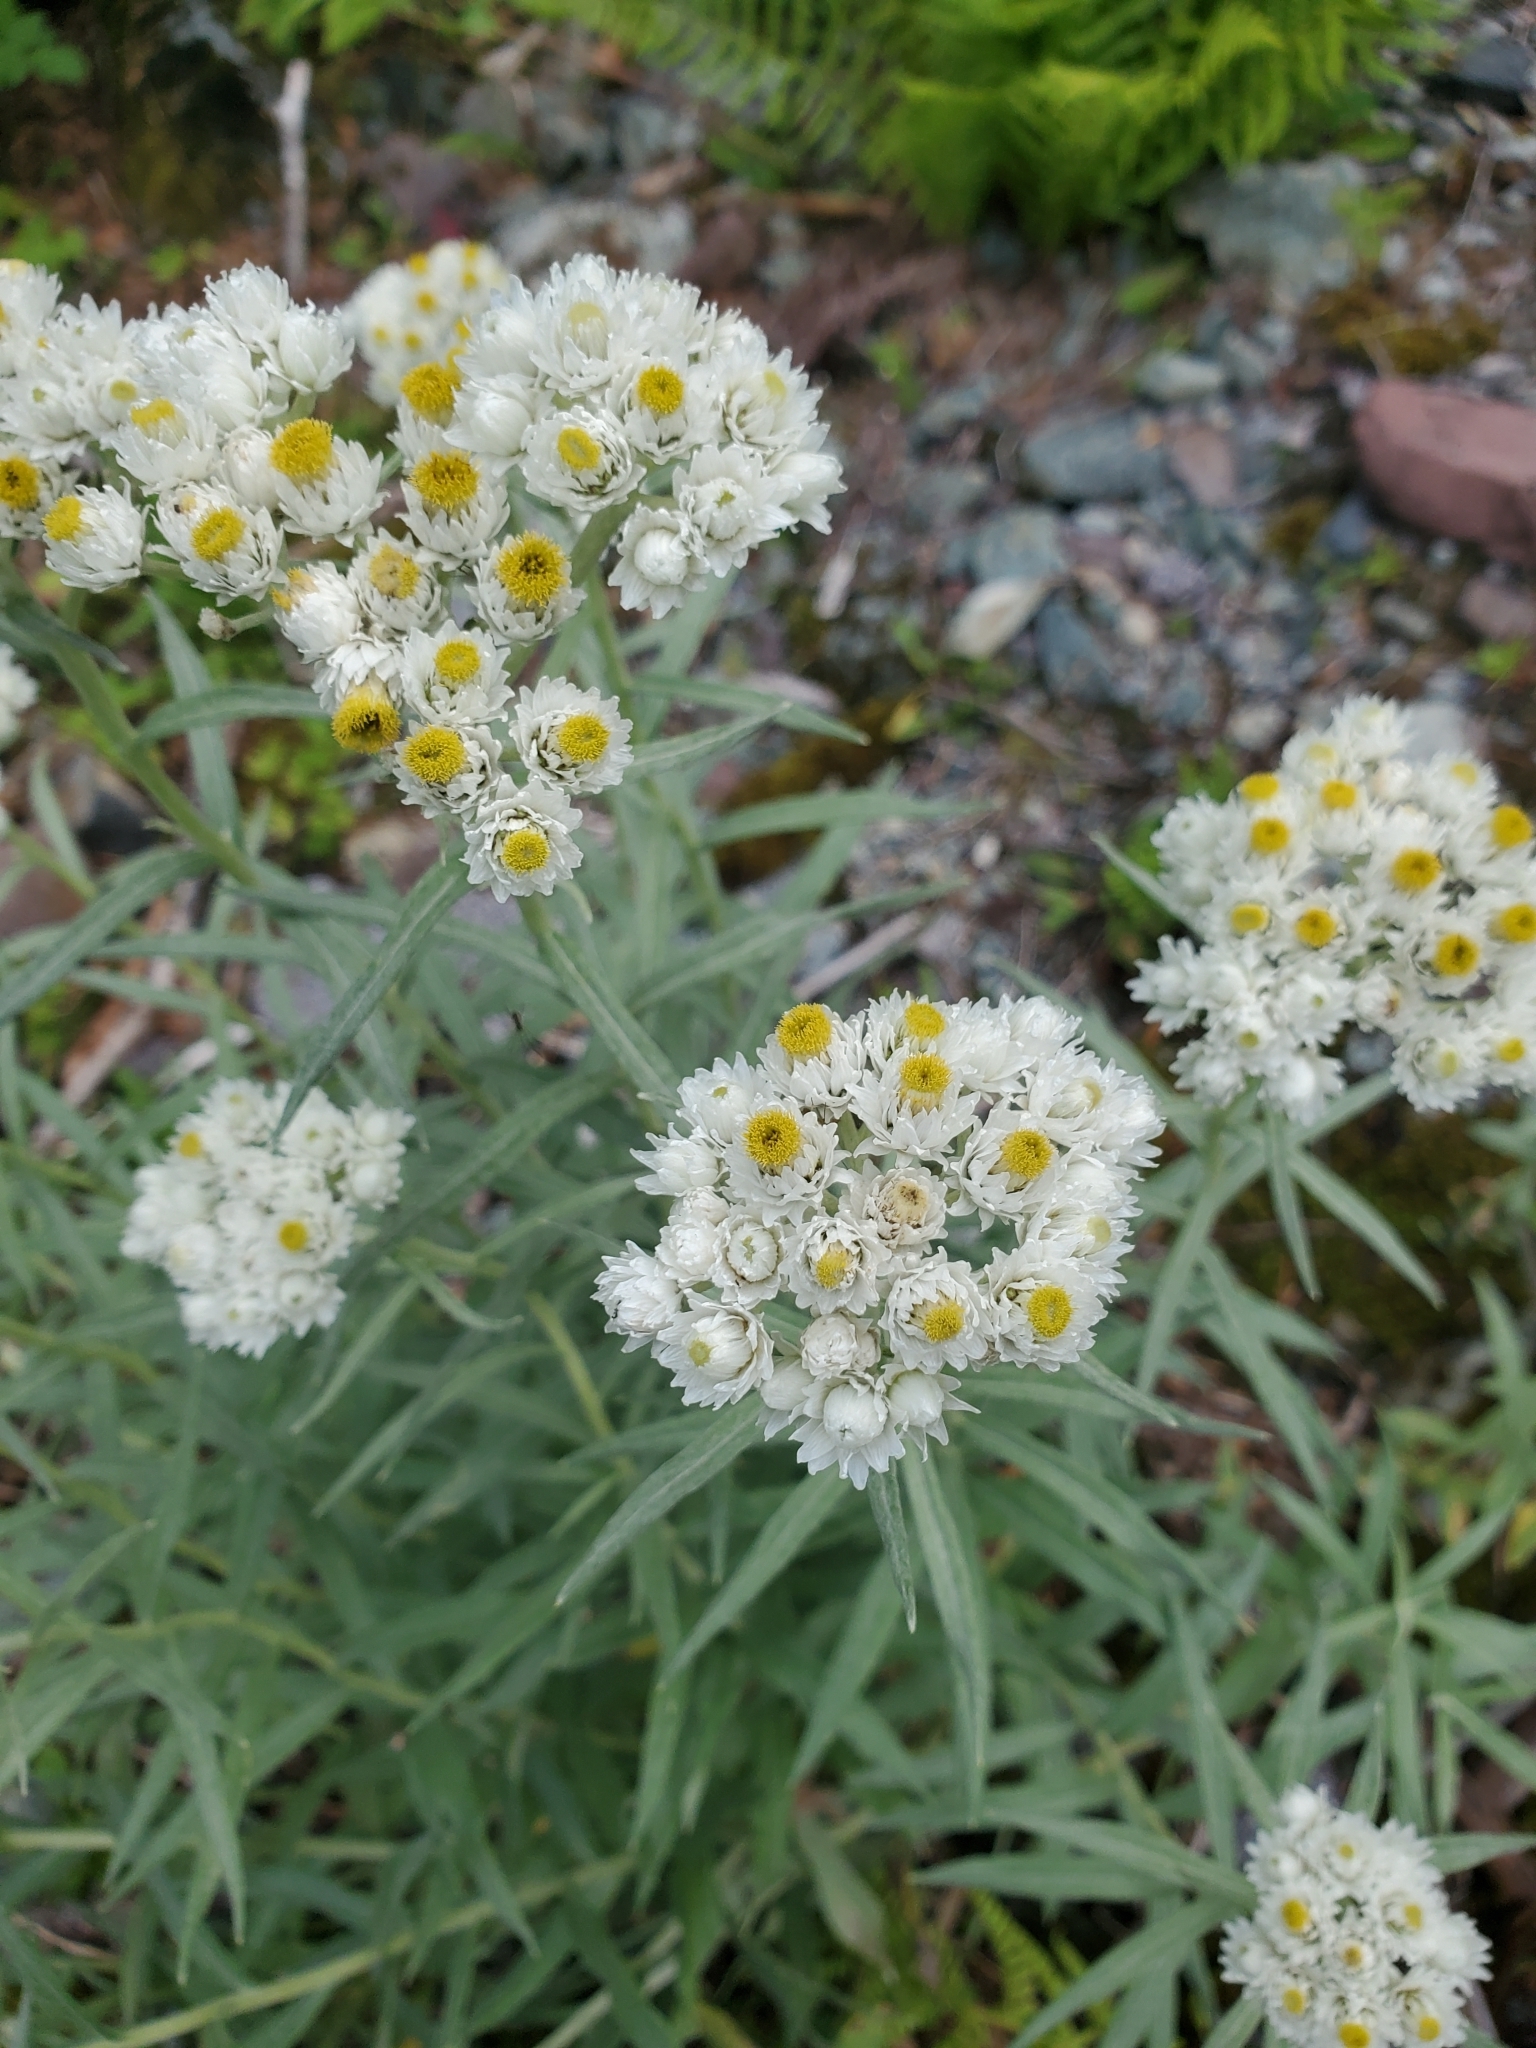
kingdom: Plantae
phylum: Tracheophyta
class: Magnoliopsida
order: Asterales
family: Asteraceae
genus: Anaphalis
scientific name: Anaphalis margaritacea
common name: Pearly everlasting
